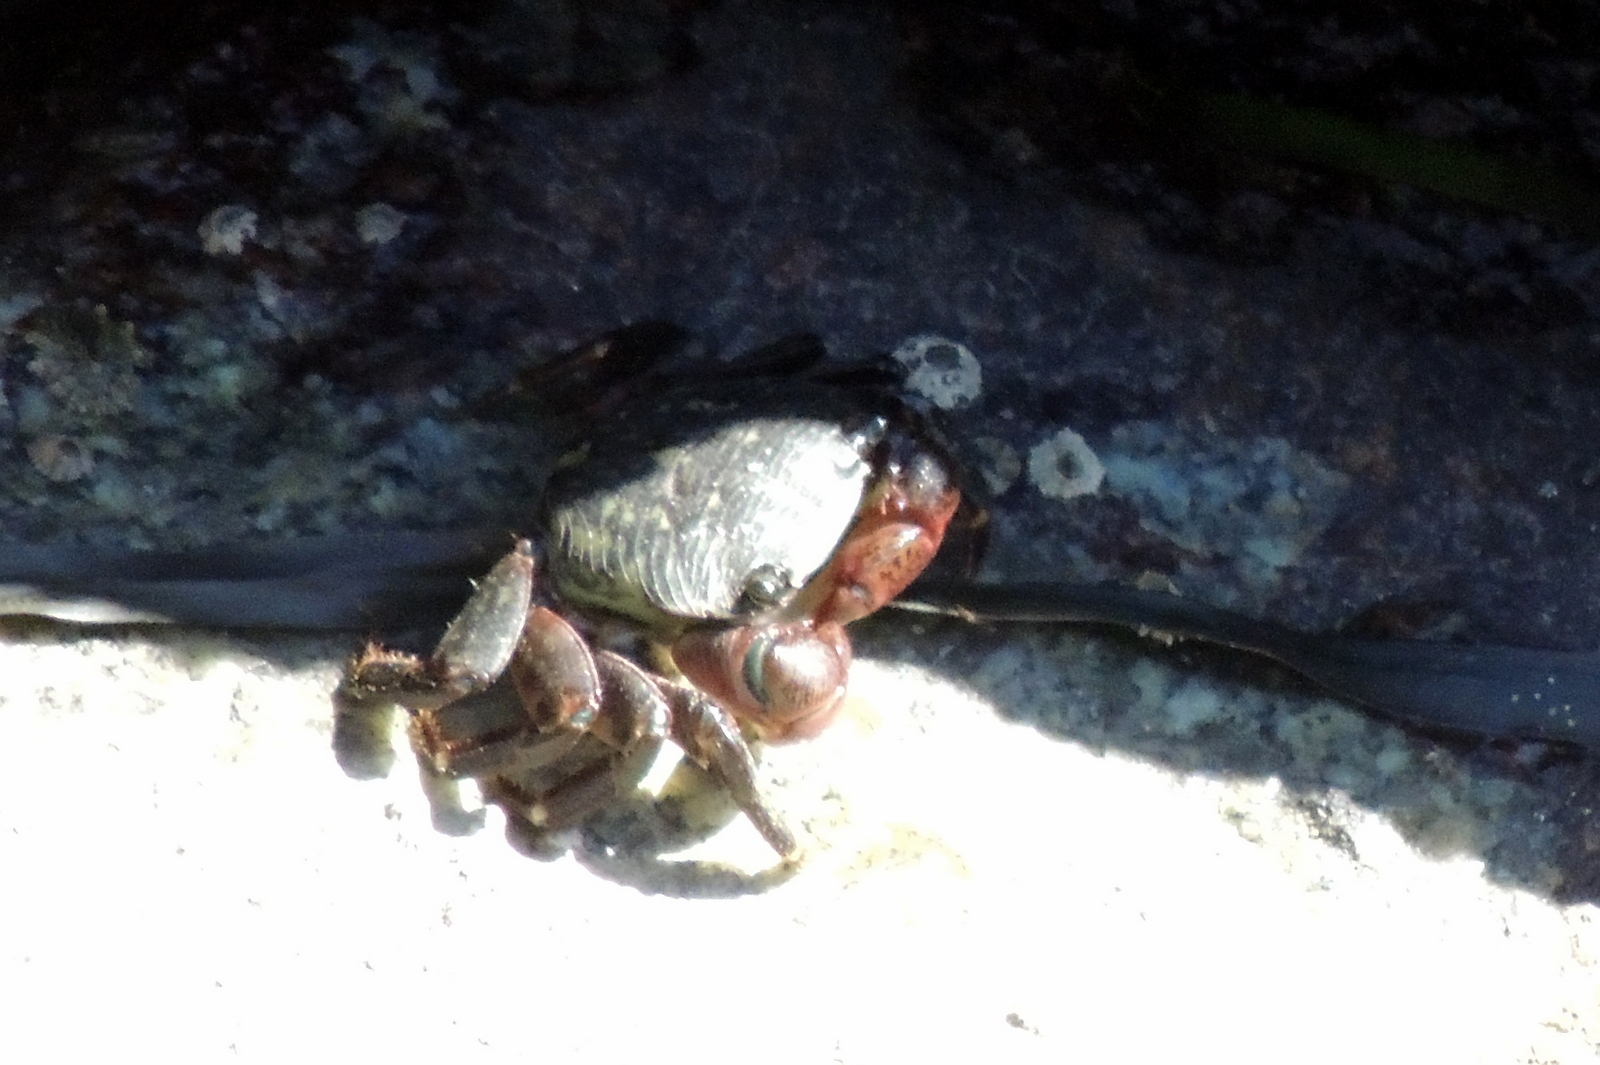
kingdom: Animalia
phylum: Arthropoda
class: Malacostraca
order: Decapoda
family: Grapsidae
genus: Pachygrapsus
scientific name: Pachygrapsus crassipes
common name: Striped shore crab
